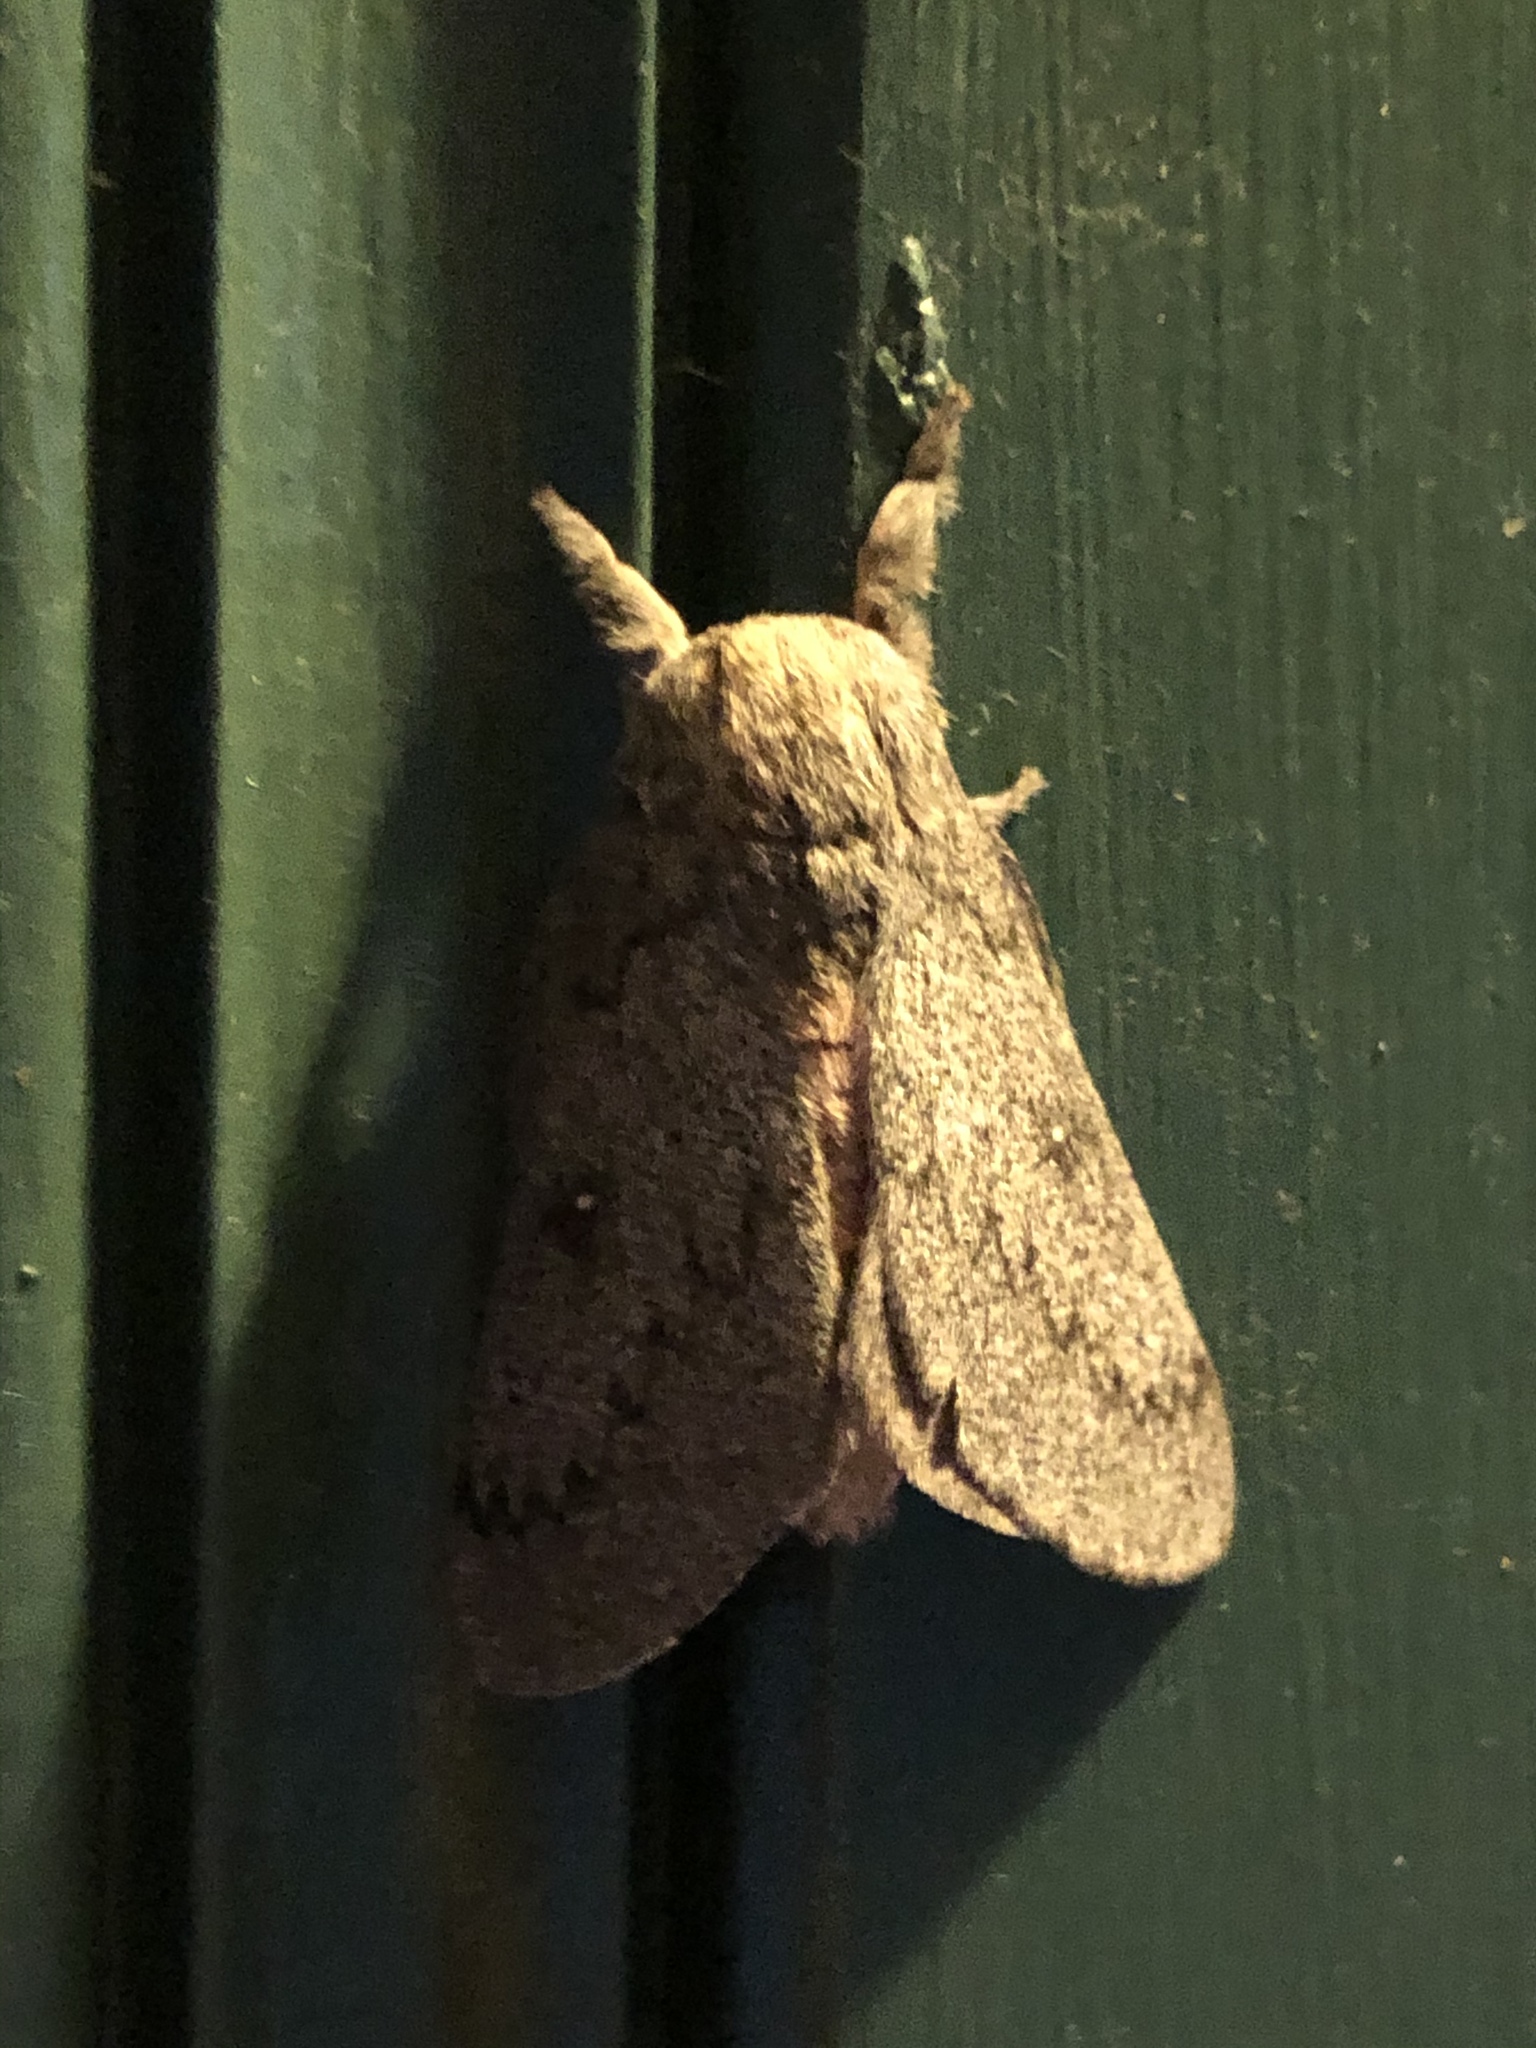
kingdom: Animalia
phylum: Arthropoda
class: Insecta
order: Lepidoptera
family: Saturniidae
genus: Syssphinx
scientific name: Syssphinx hubbardi
